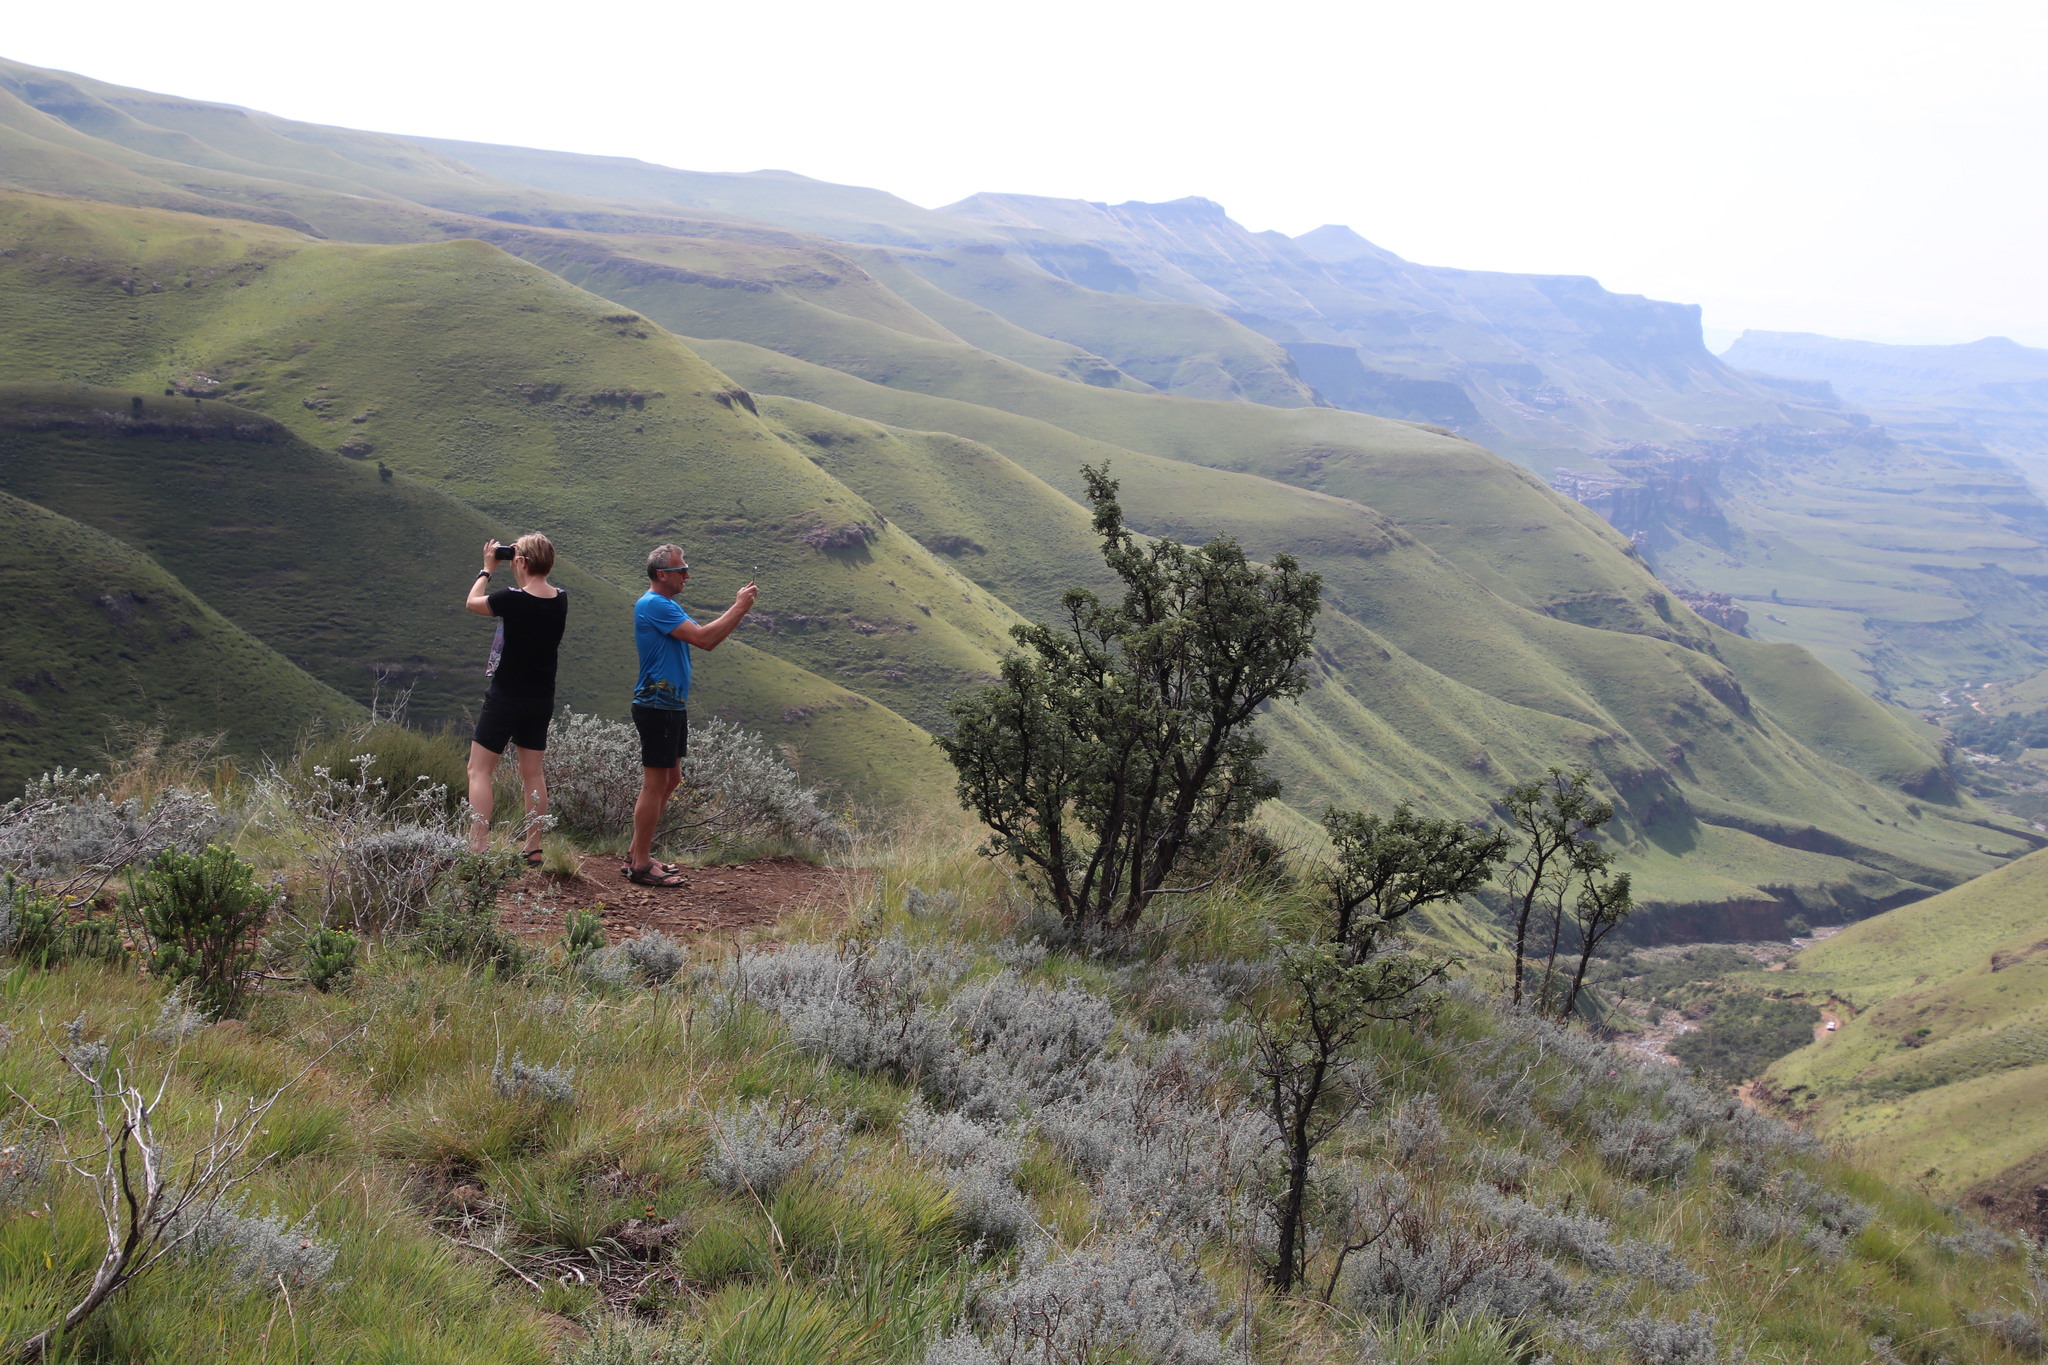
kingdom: Plantae
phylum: Tracheophyta
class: Magnoliopsida
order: Fabales
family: Fabaceae
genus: Lotononis
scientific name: Lotononis lotononoides
